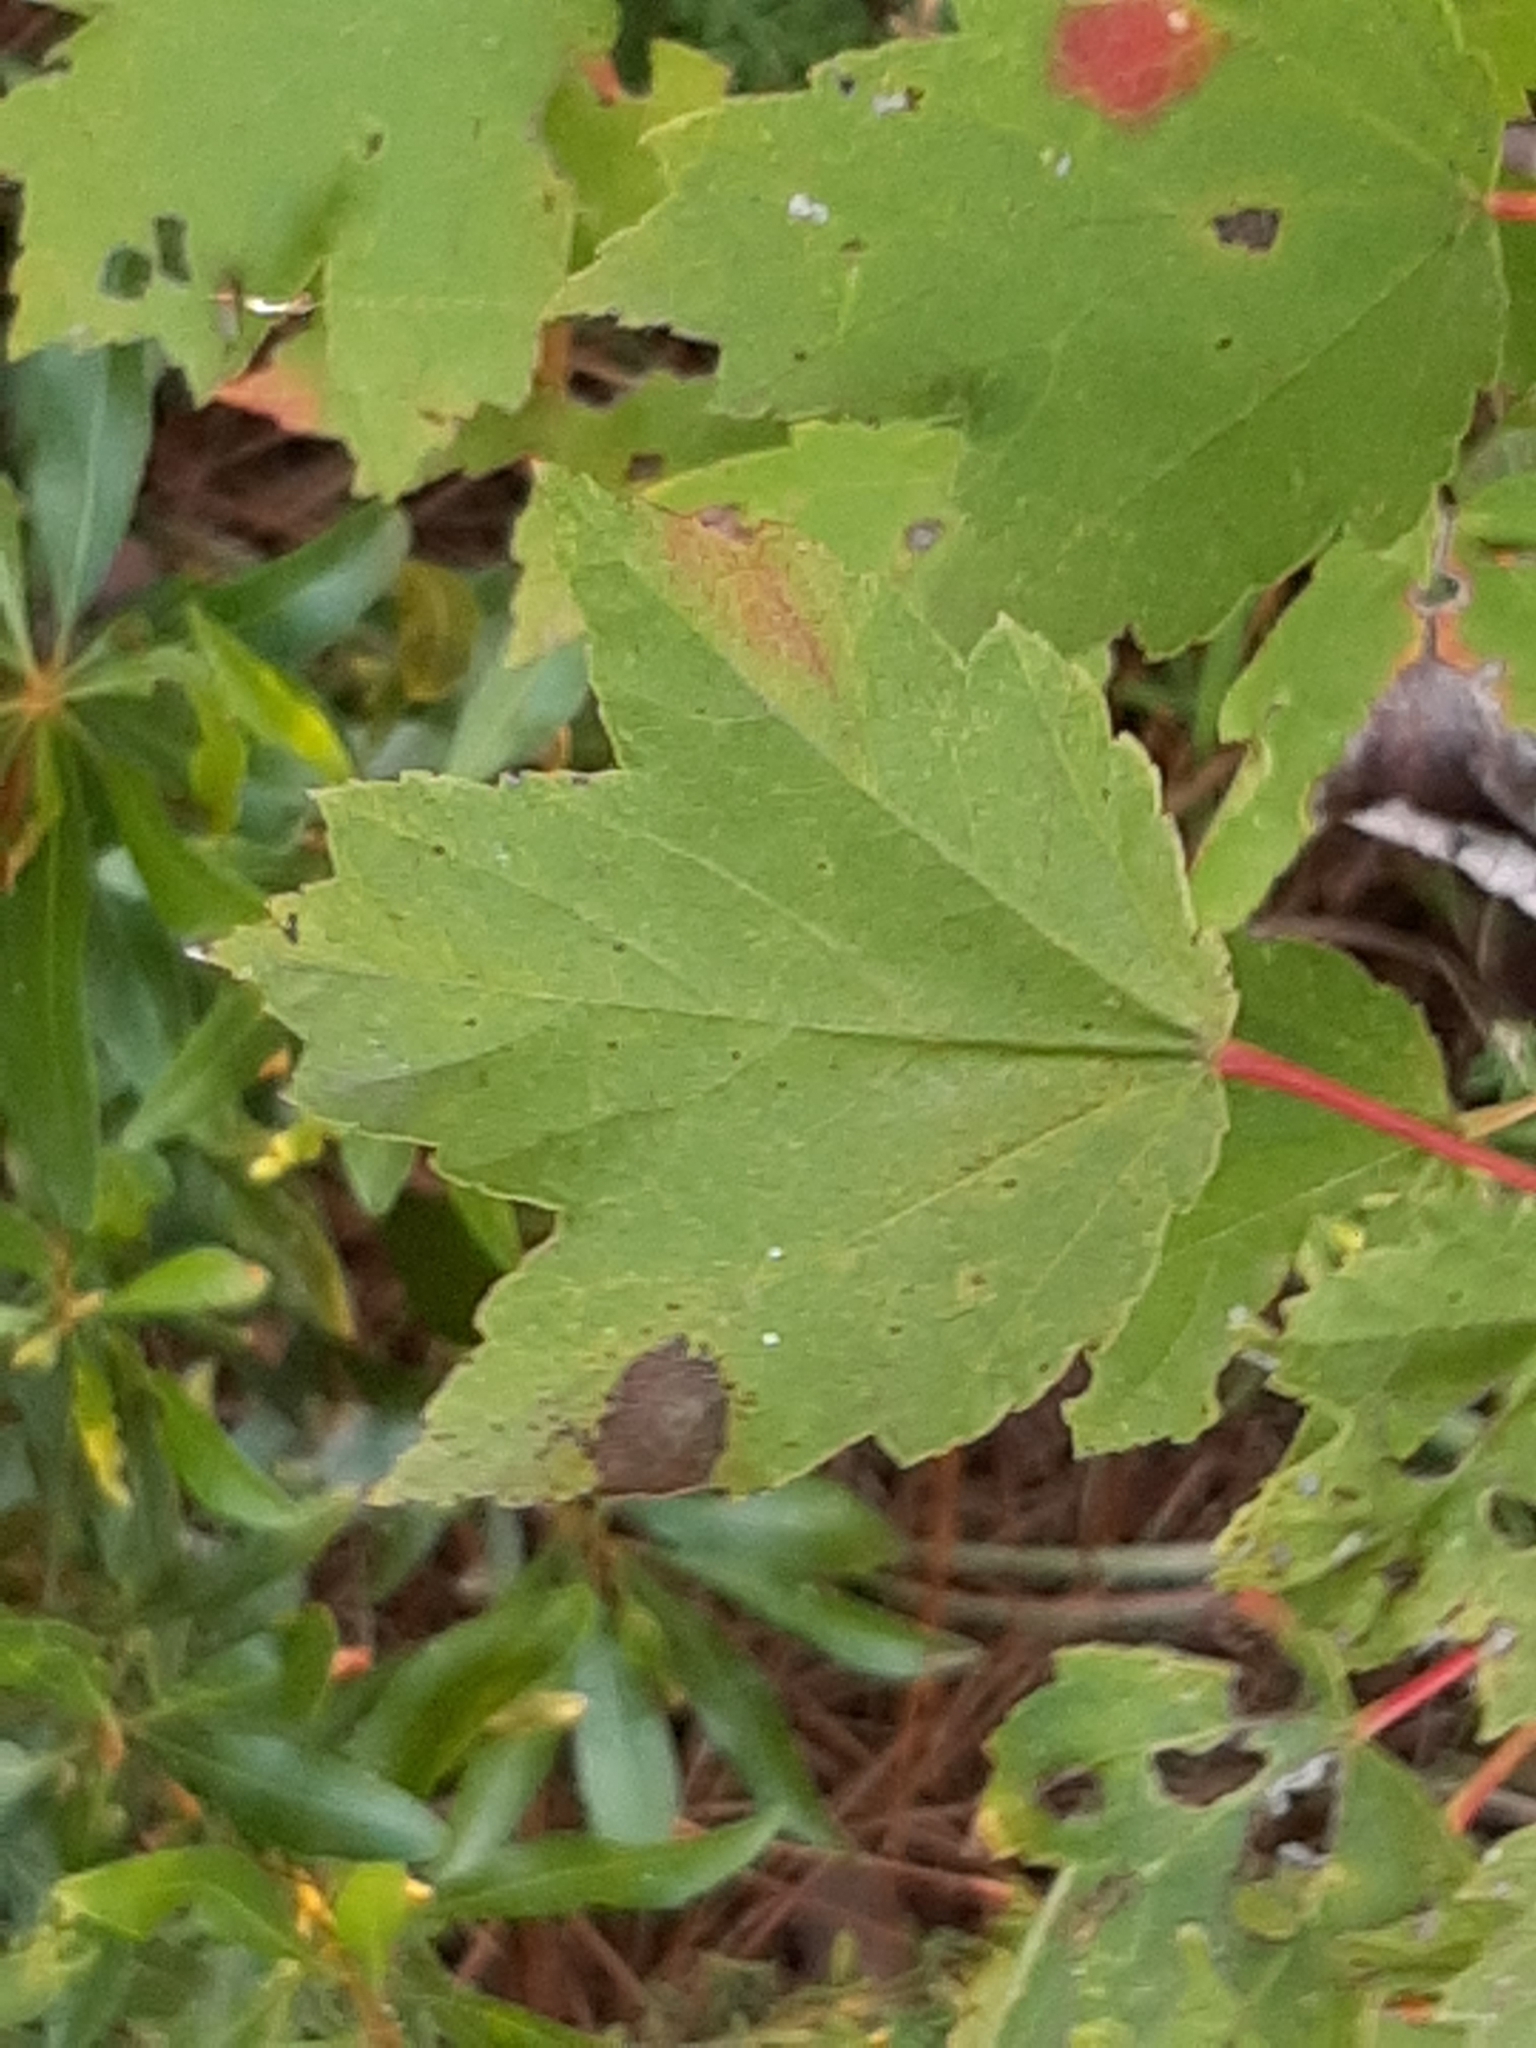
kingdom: Plantae
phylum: Tracheophyta
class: Magnoliopsida
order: Sapindales
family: Sapindaceae
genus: Acer
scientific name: Acer rubrum
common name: Red maple
